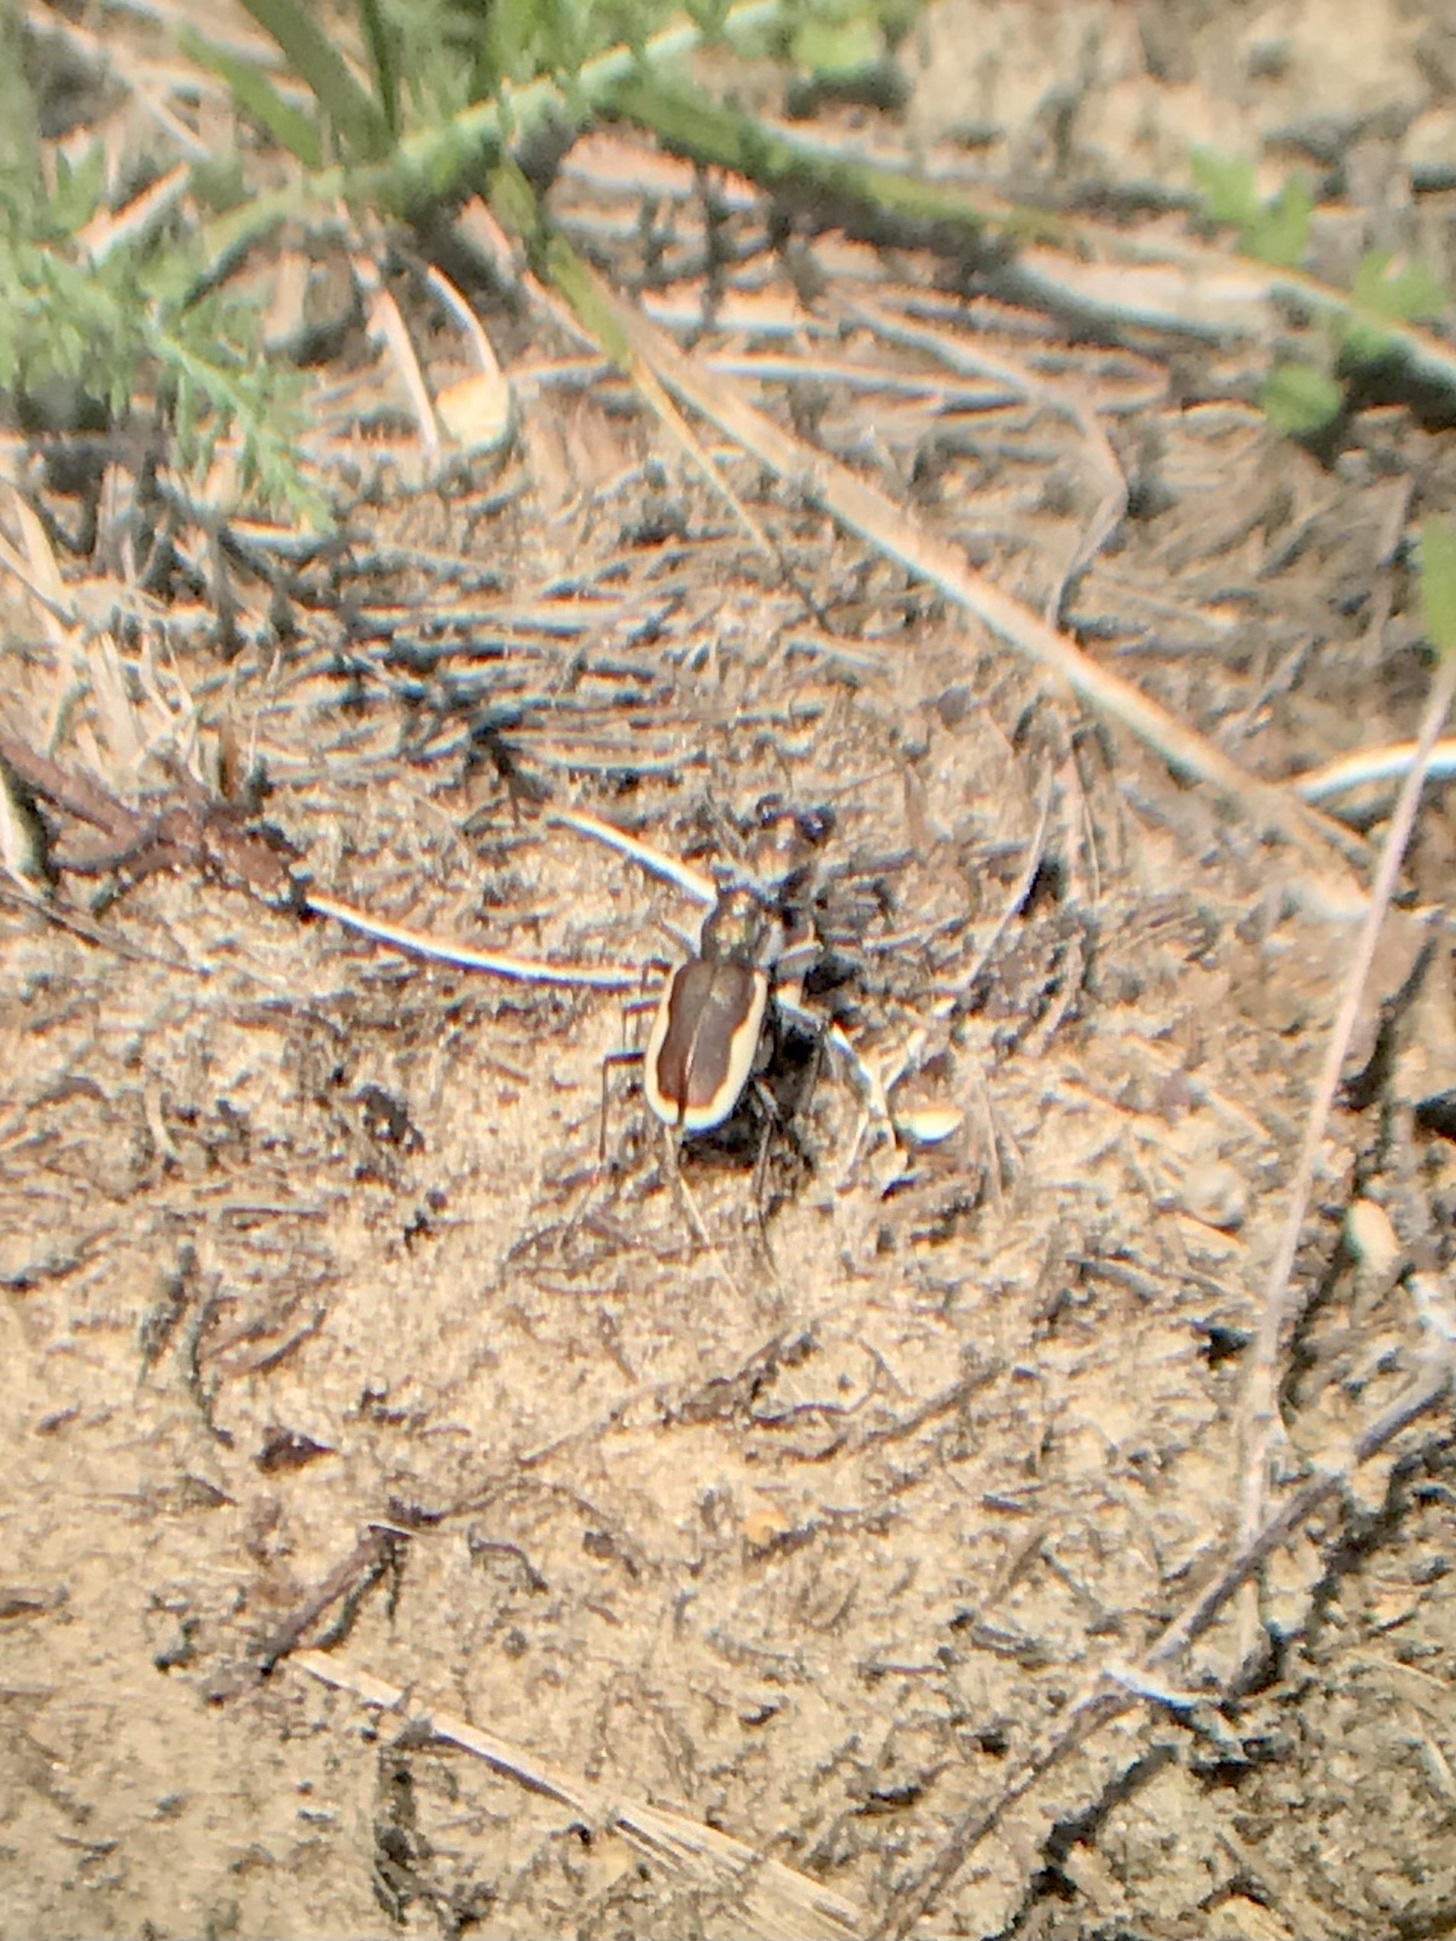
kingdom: Animalia
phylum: Arthropoda
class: Insecta
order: Coleoptera
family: Carabidae
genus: Cicindela
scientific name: Cicindela scutellaris
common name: Festive tiger beetle
